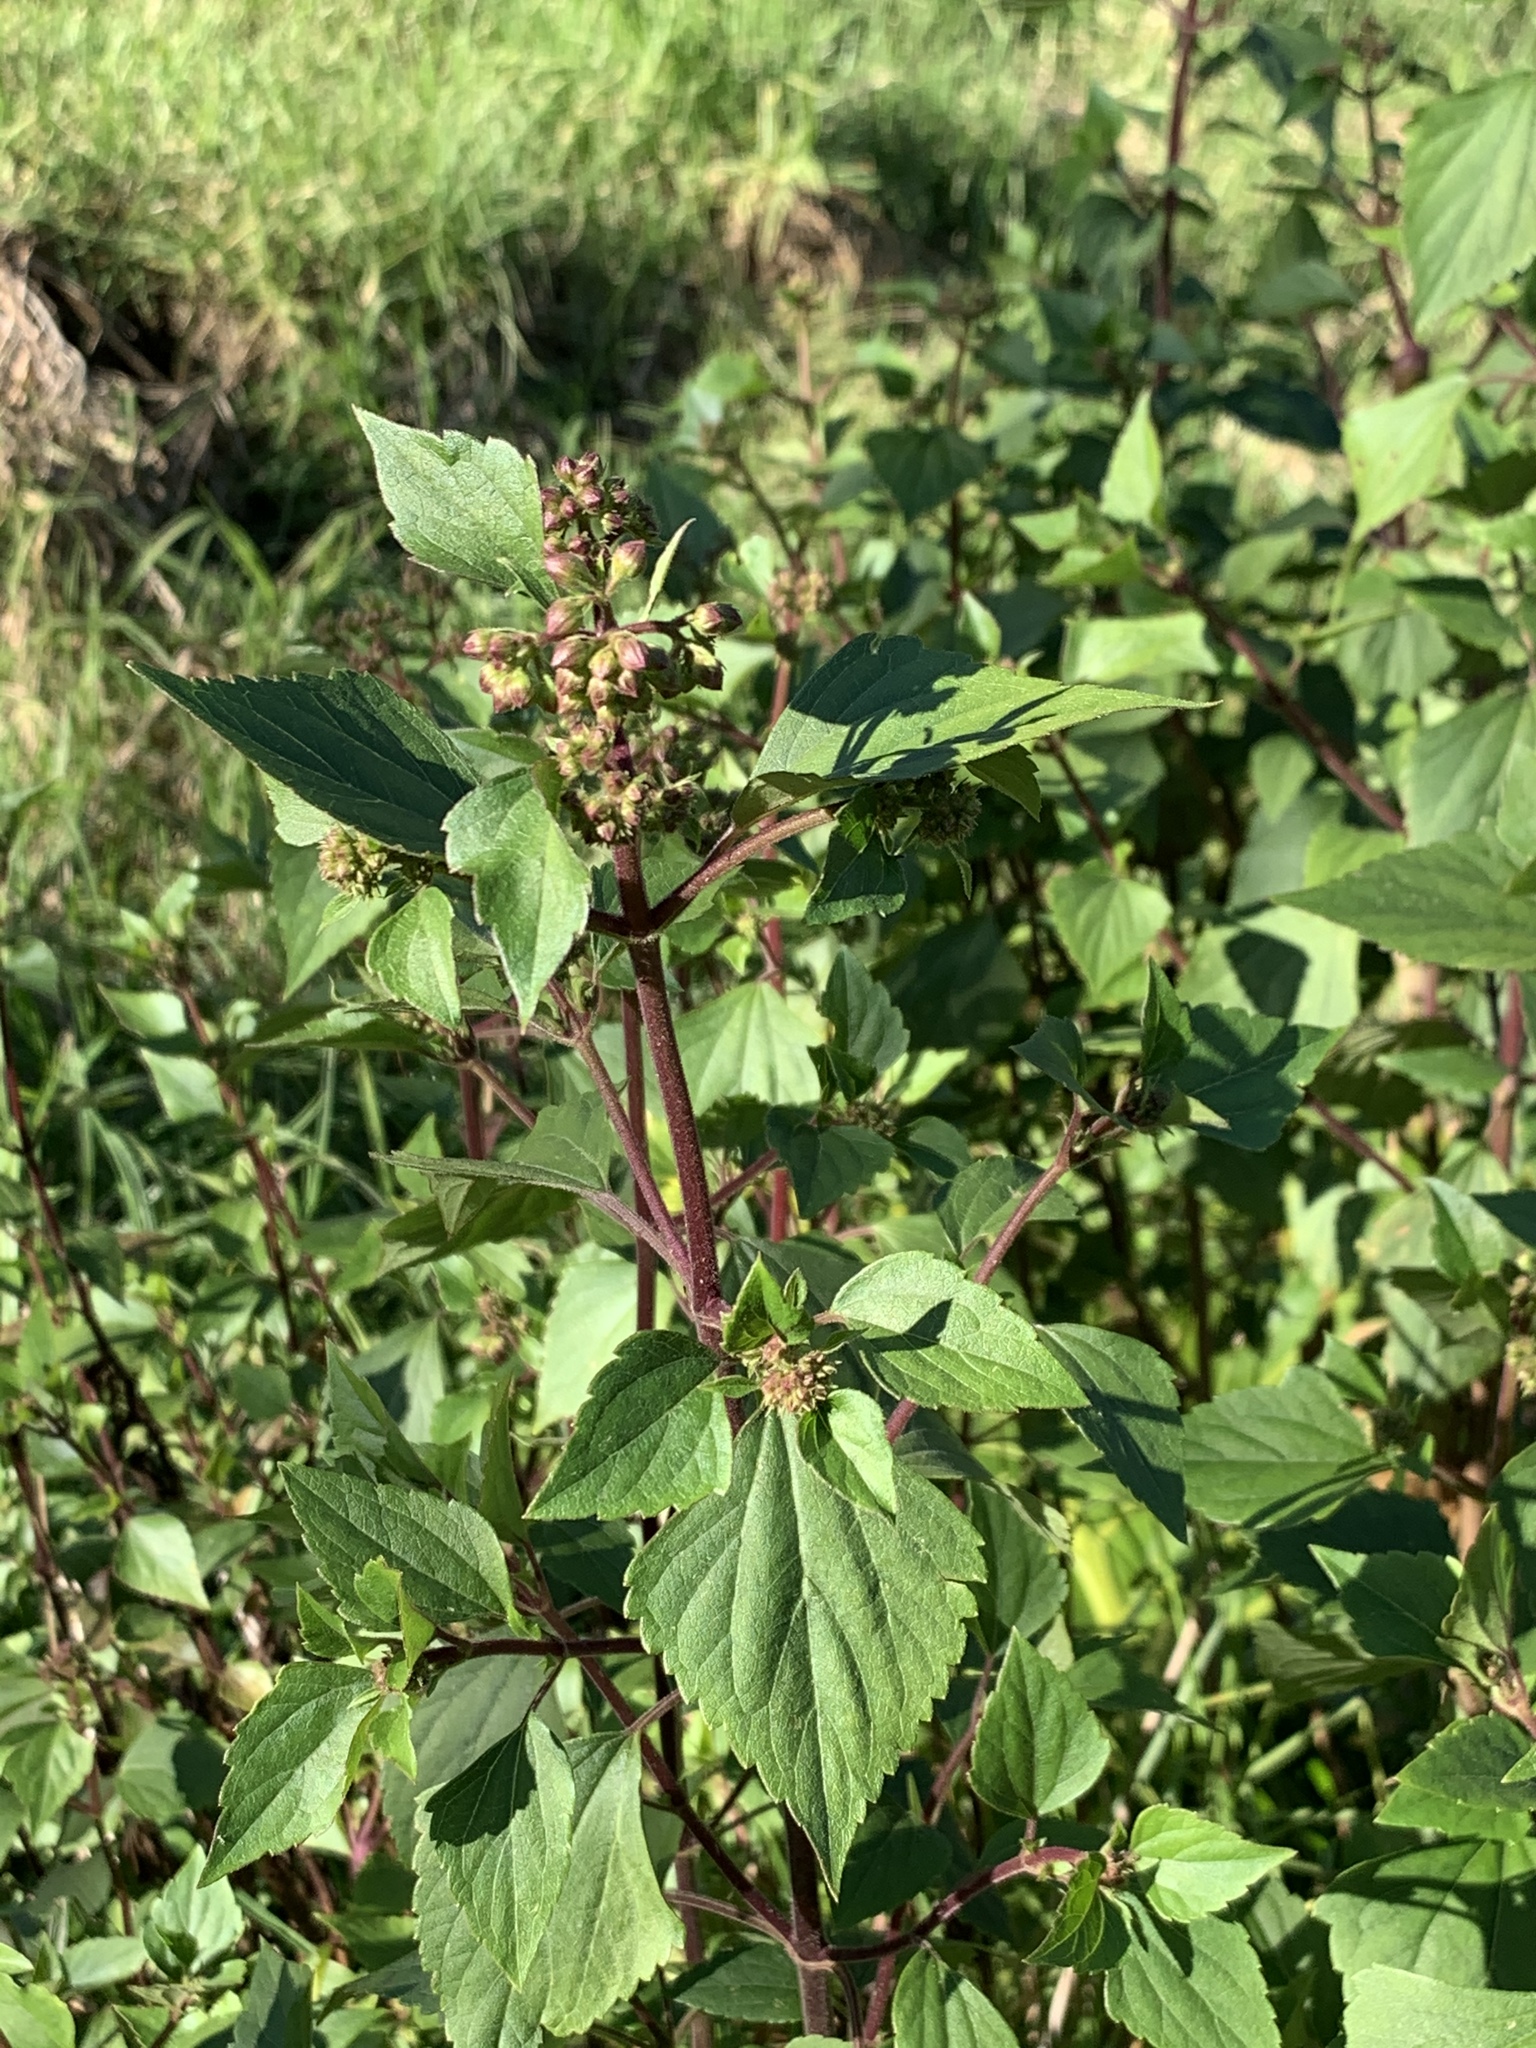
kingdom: Plantae
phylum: Tracheophyta
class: Magnoliopsida
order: Asterales
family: Asteraceae
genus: Ageratina
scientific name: Ageratina adenophora
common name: Sticky snakeroot
